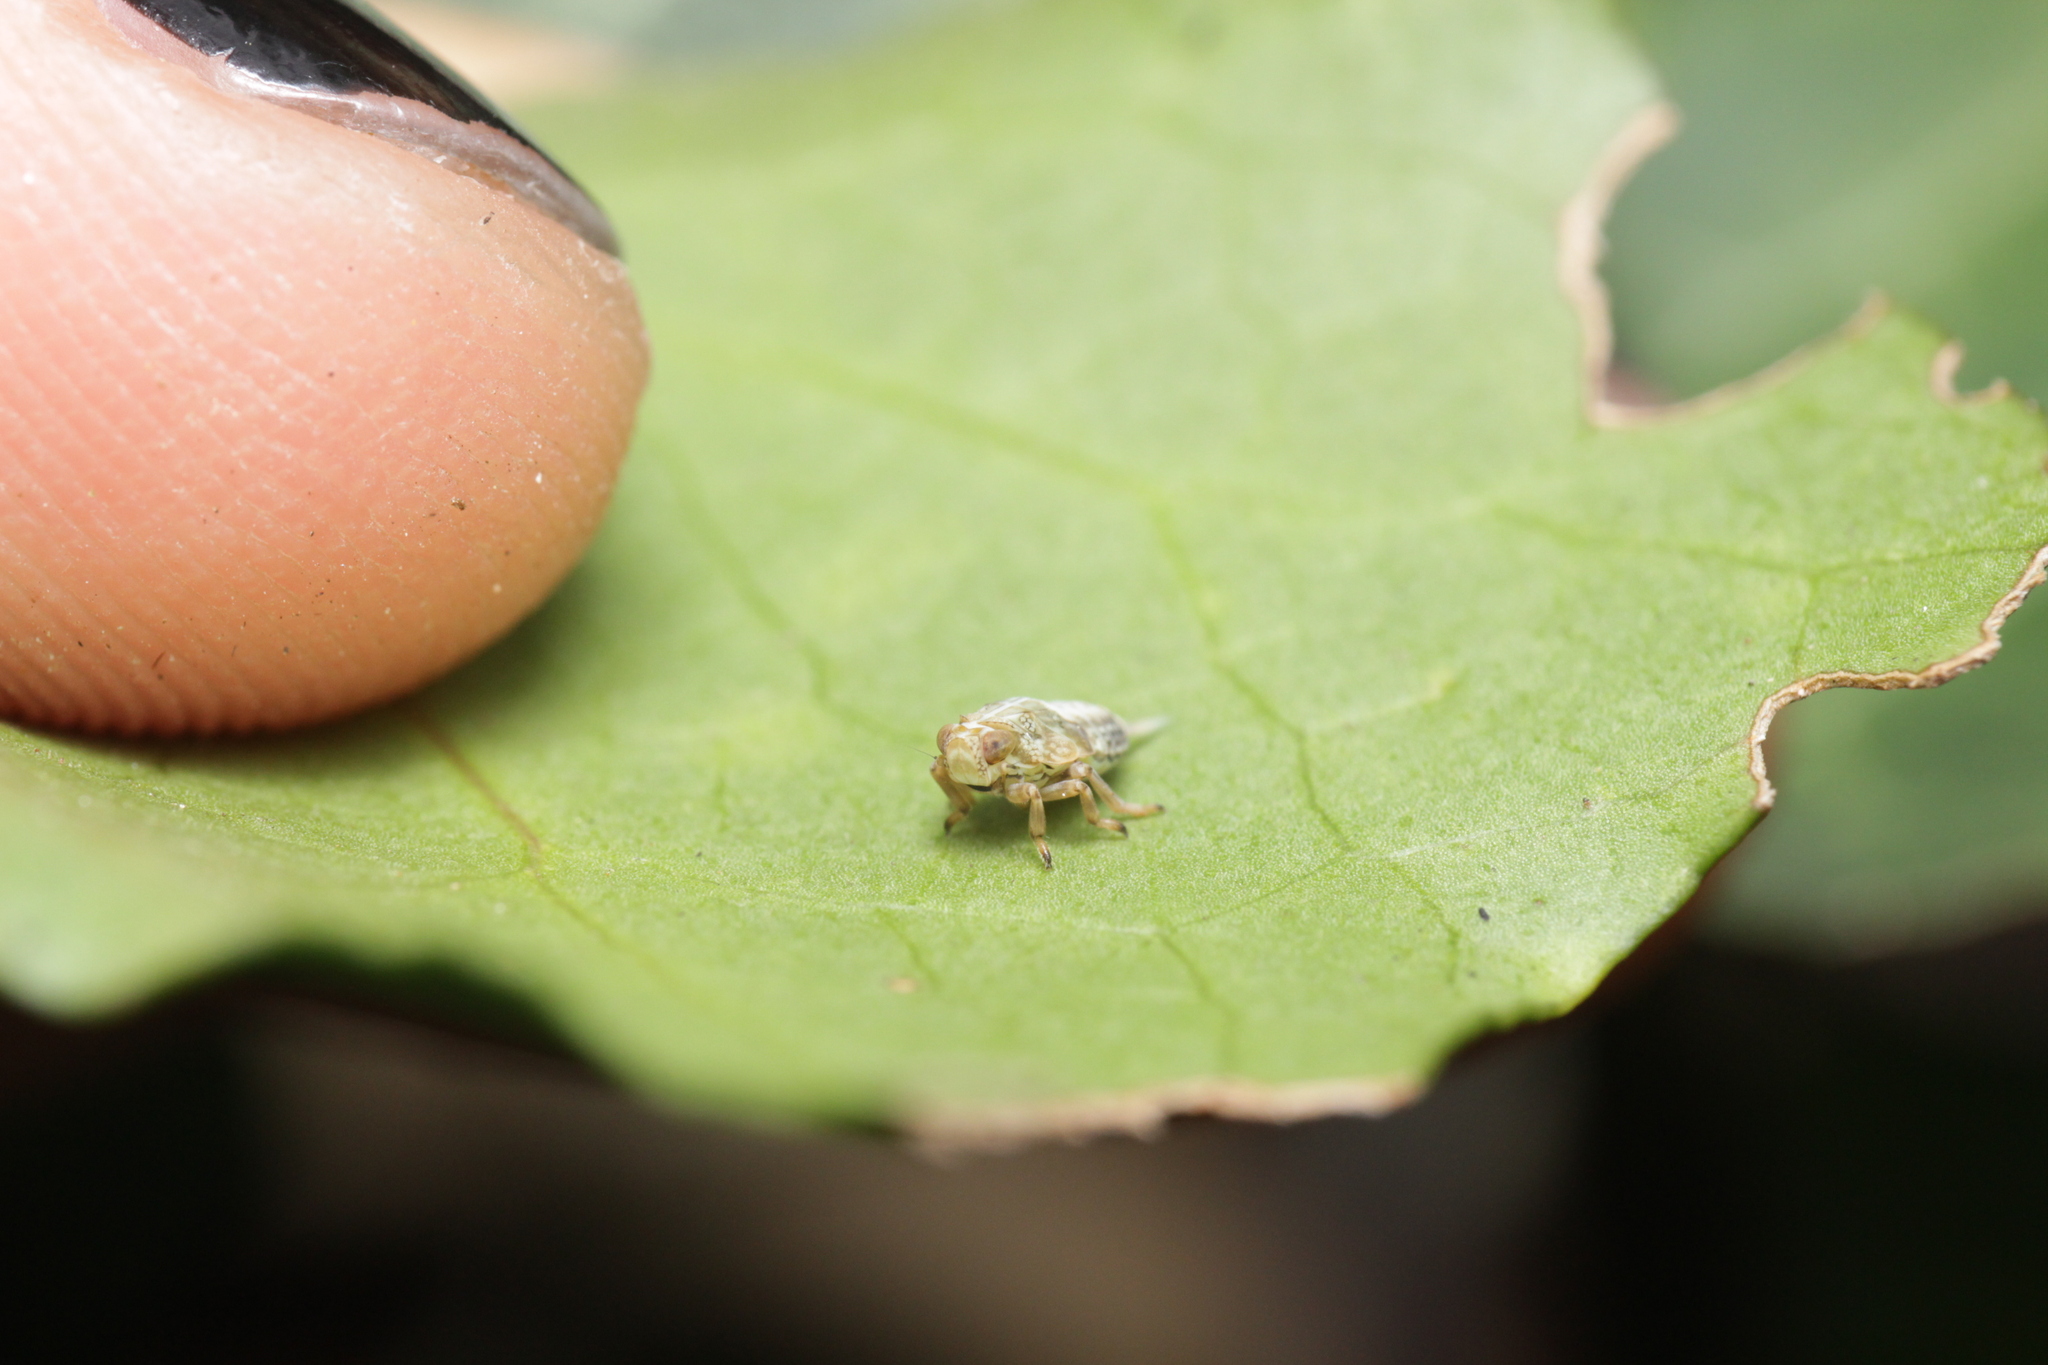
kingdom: Animalia
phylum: Arthropoda
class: Insecta
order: Hemiptera
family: Issidae
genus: Issus
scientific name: Issus coleoptratus
